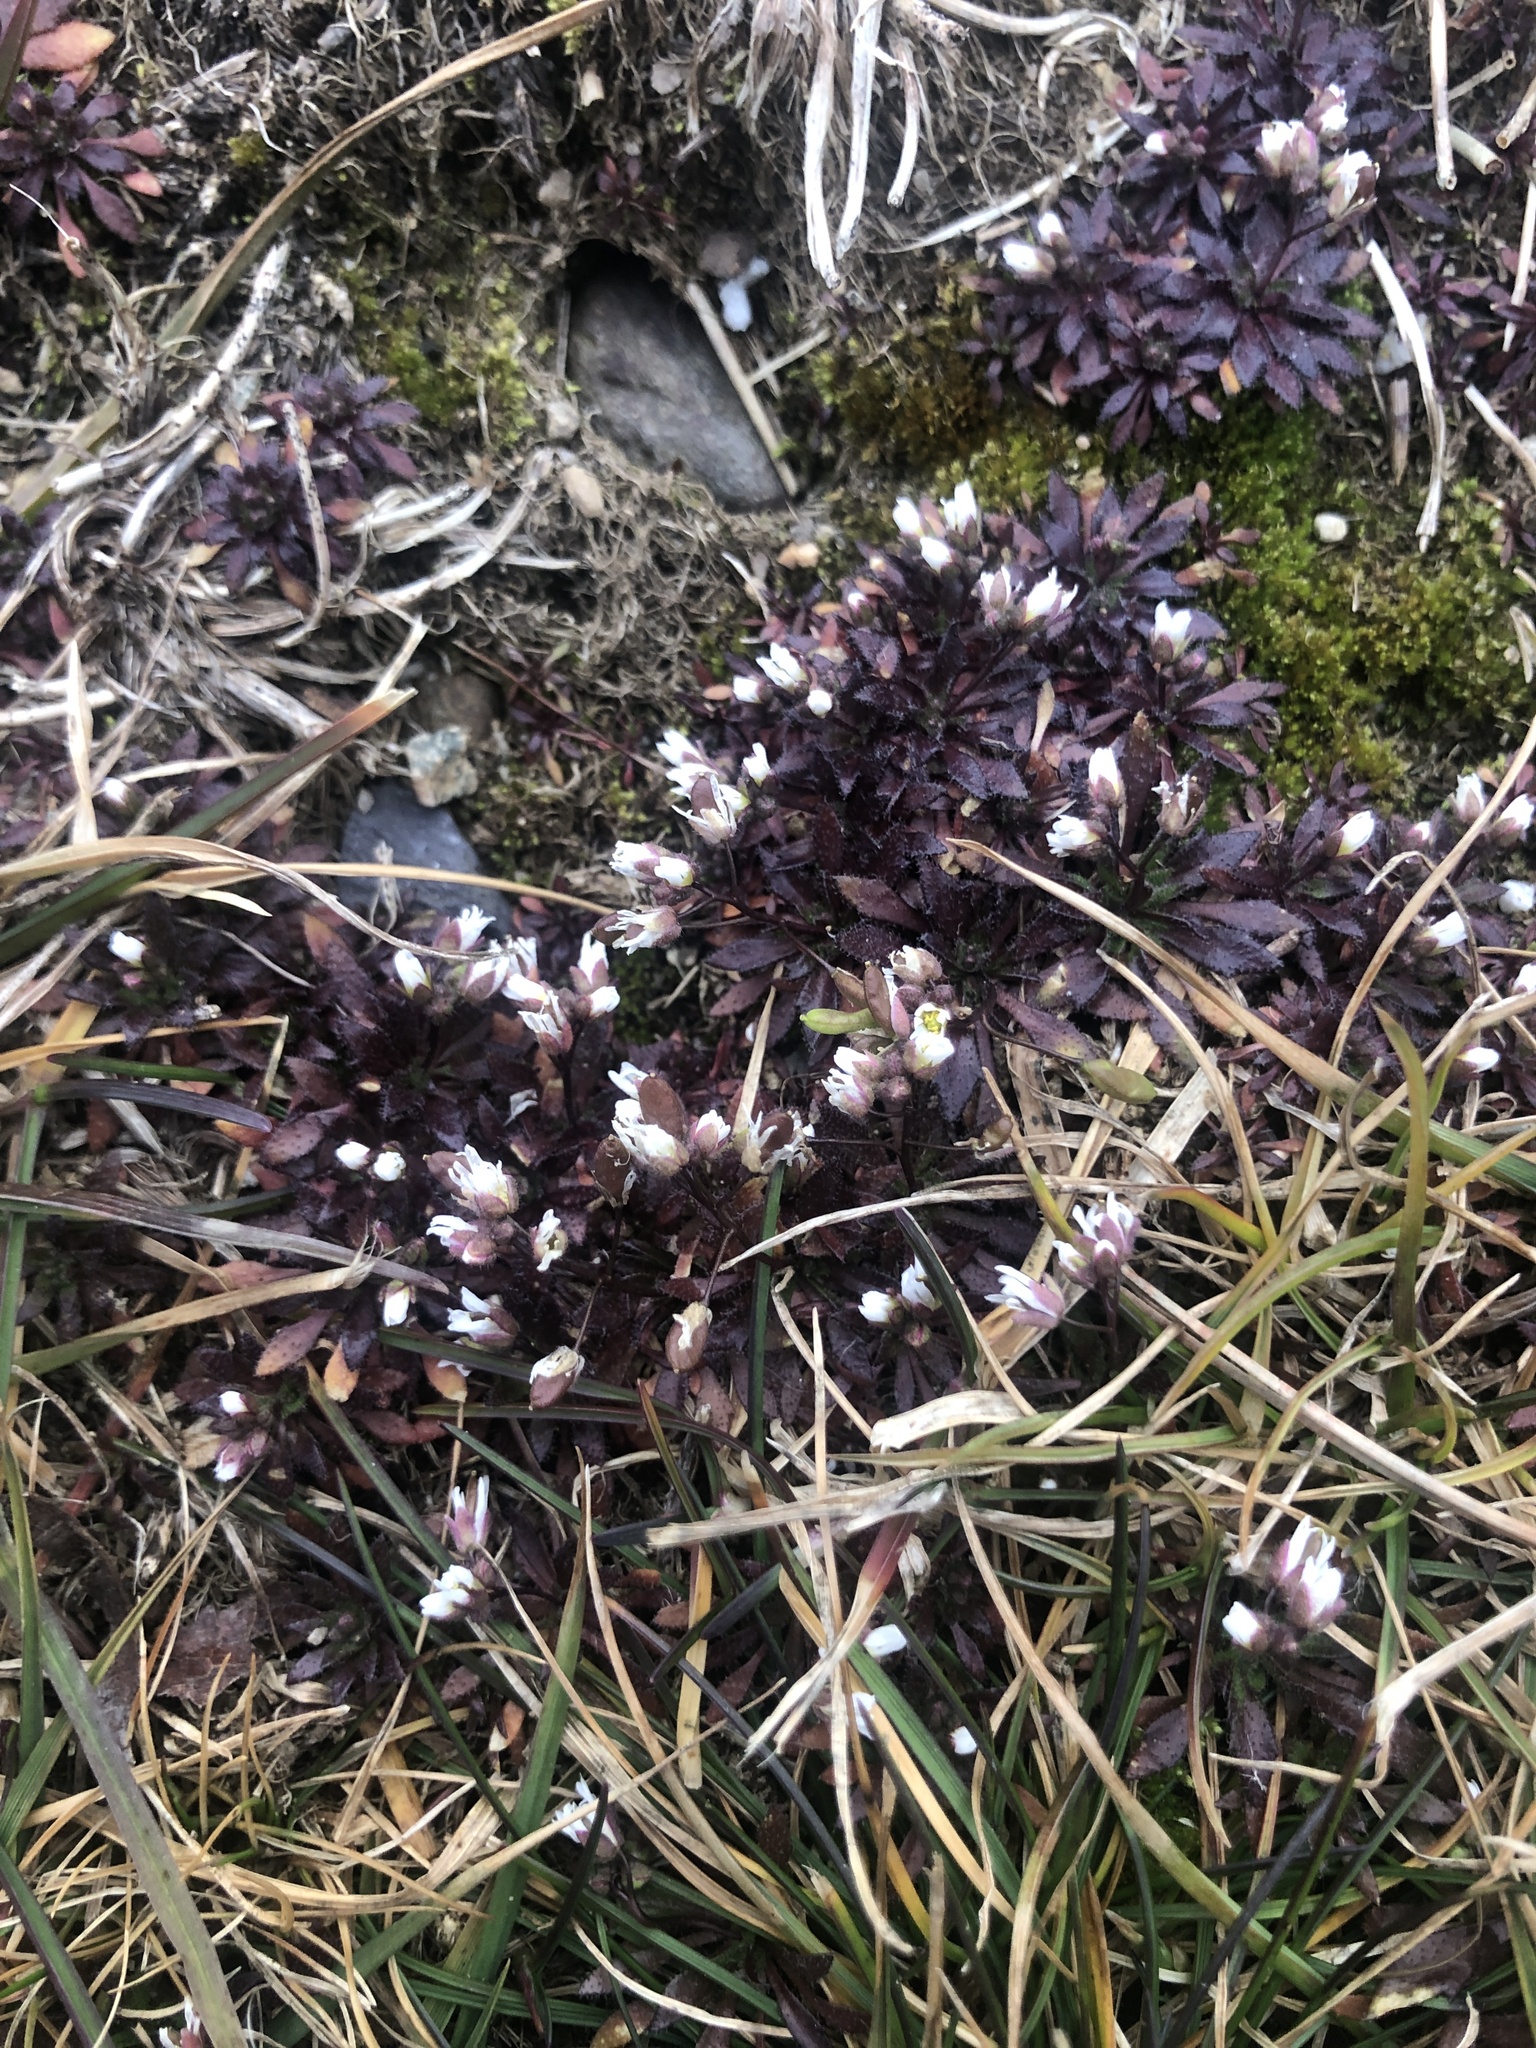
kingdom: Plantae
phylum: Tracheophyta
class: Magnoliopsida
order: Brassicales
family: Brassicaceae
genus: Draba
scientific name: Draba verna
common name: Spring draba
